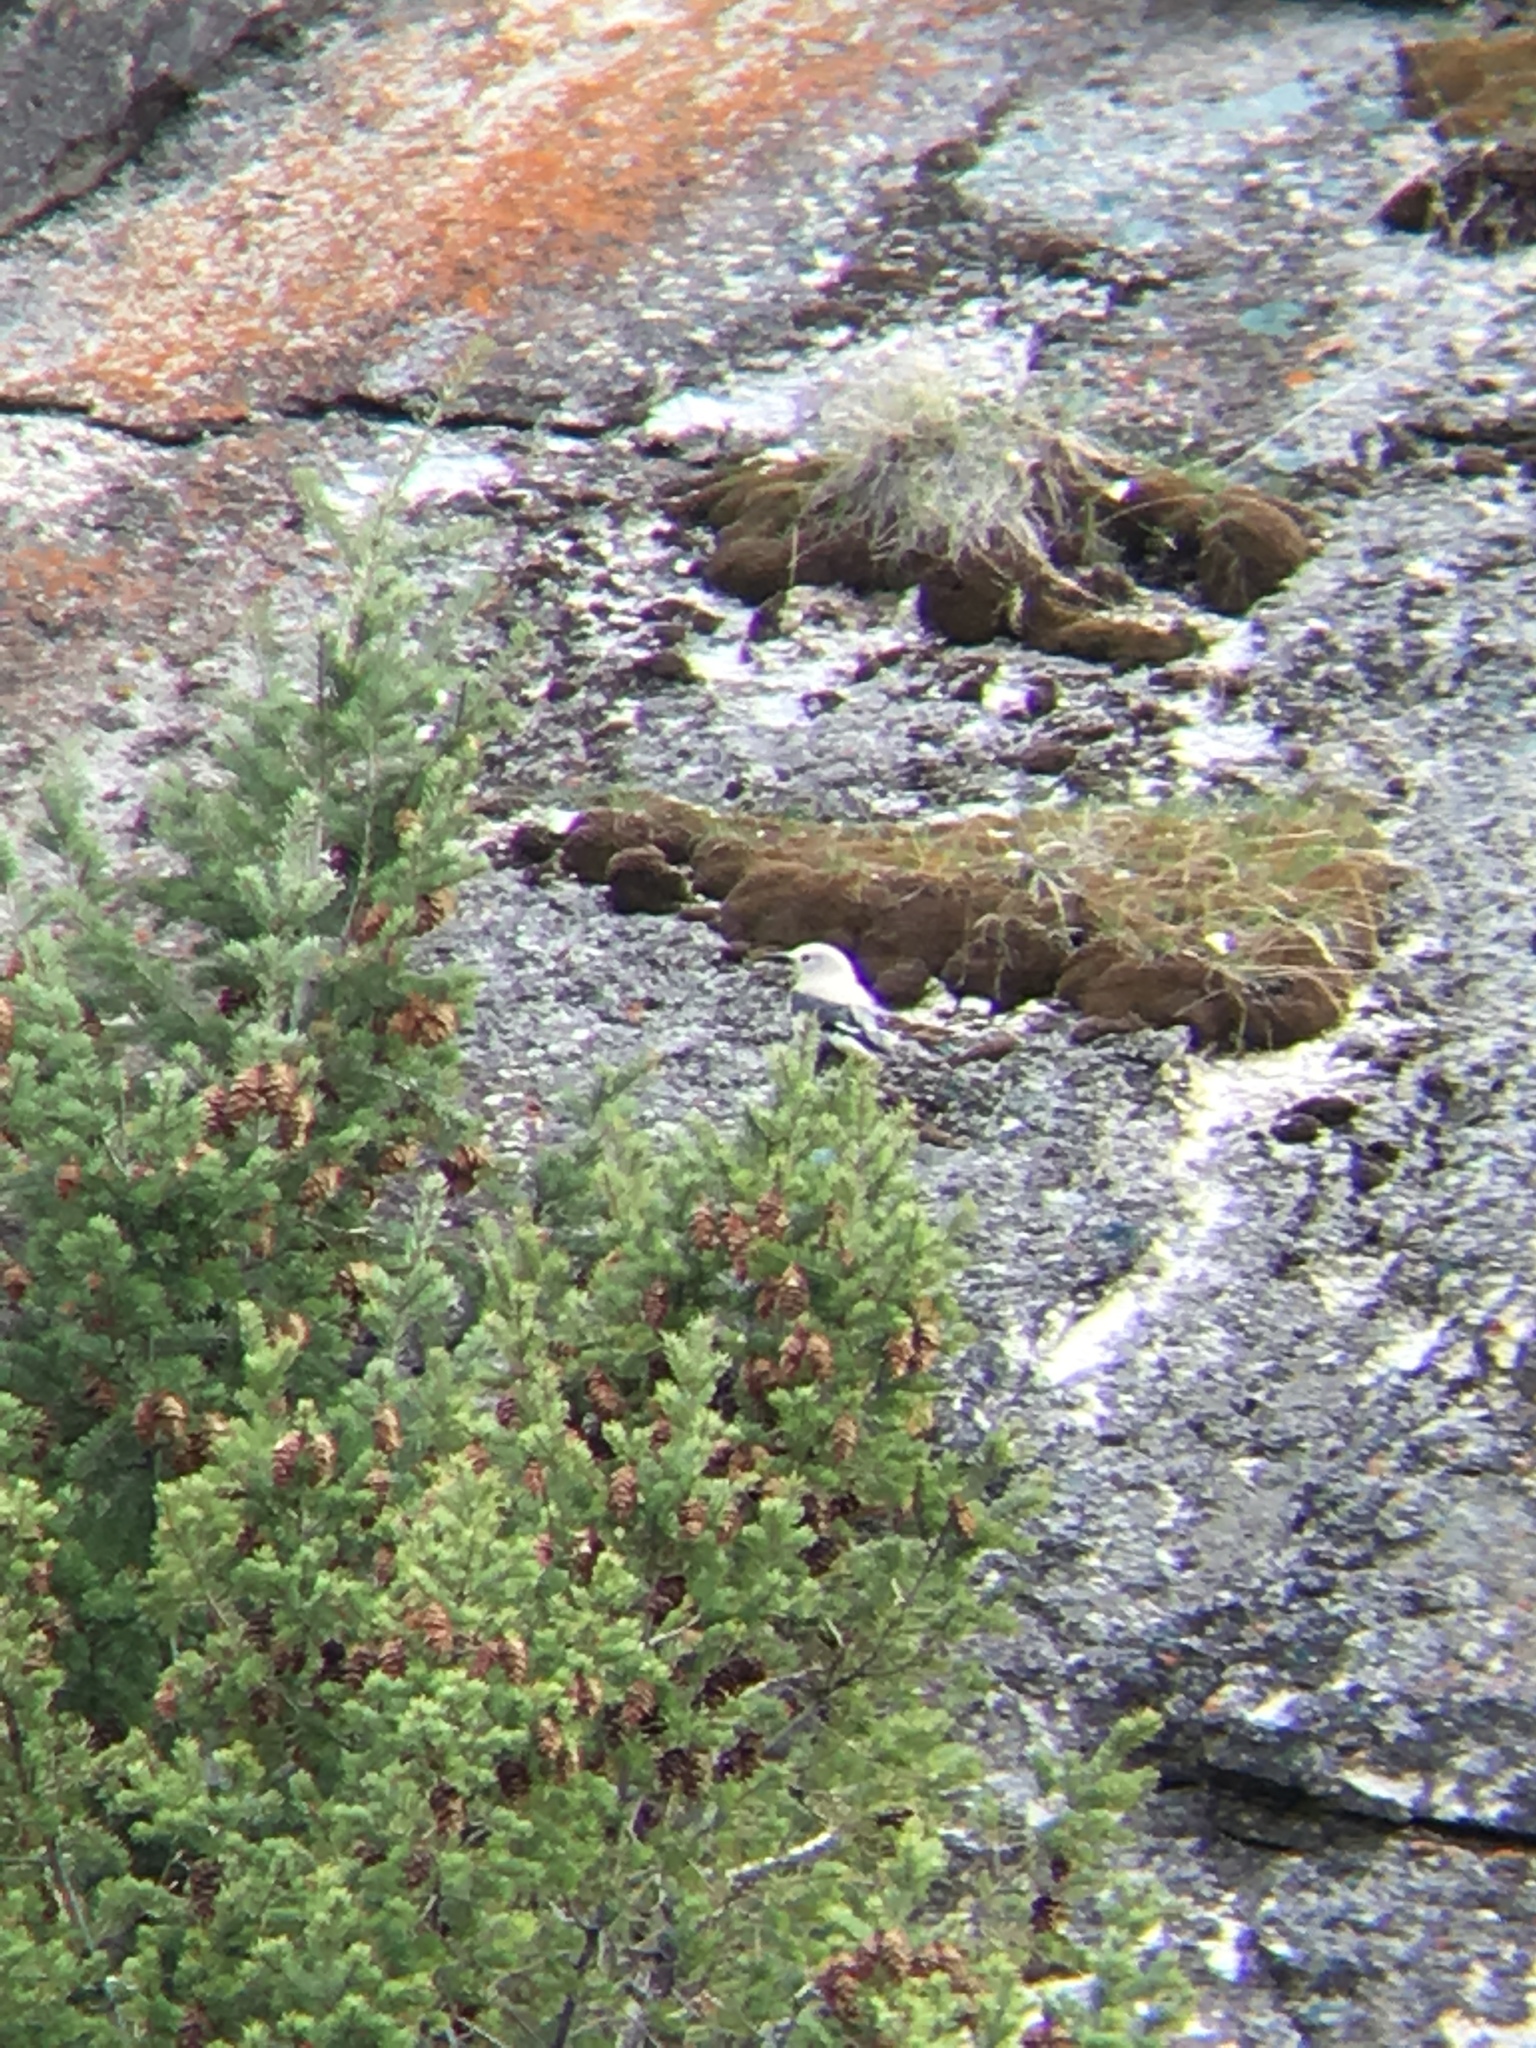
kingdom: Animalia
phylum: Chordata
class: Aves
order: Passeriformes
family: Corvidae
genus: Nucifraga
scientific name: Nucifraga columbiana
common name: Clark's nutcracker
